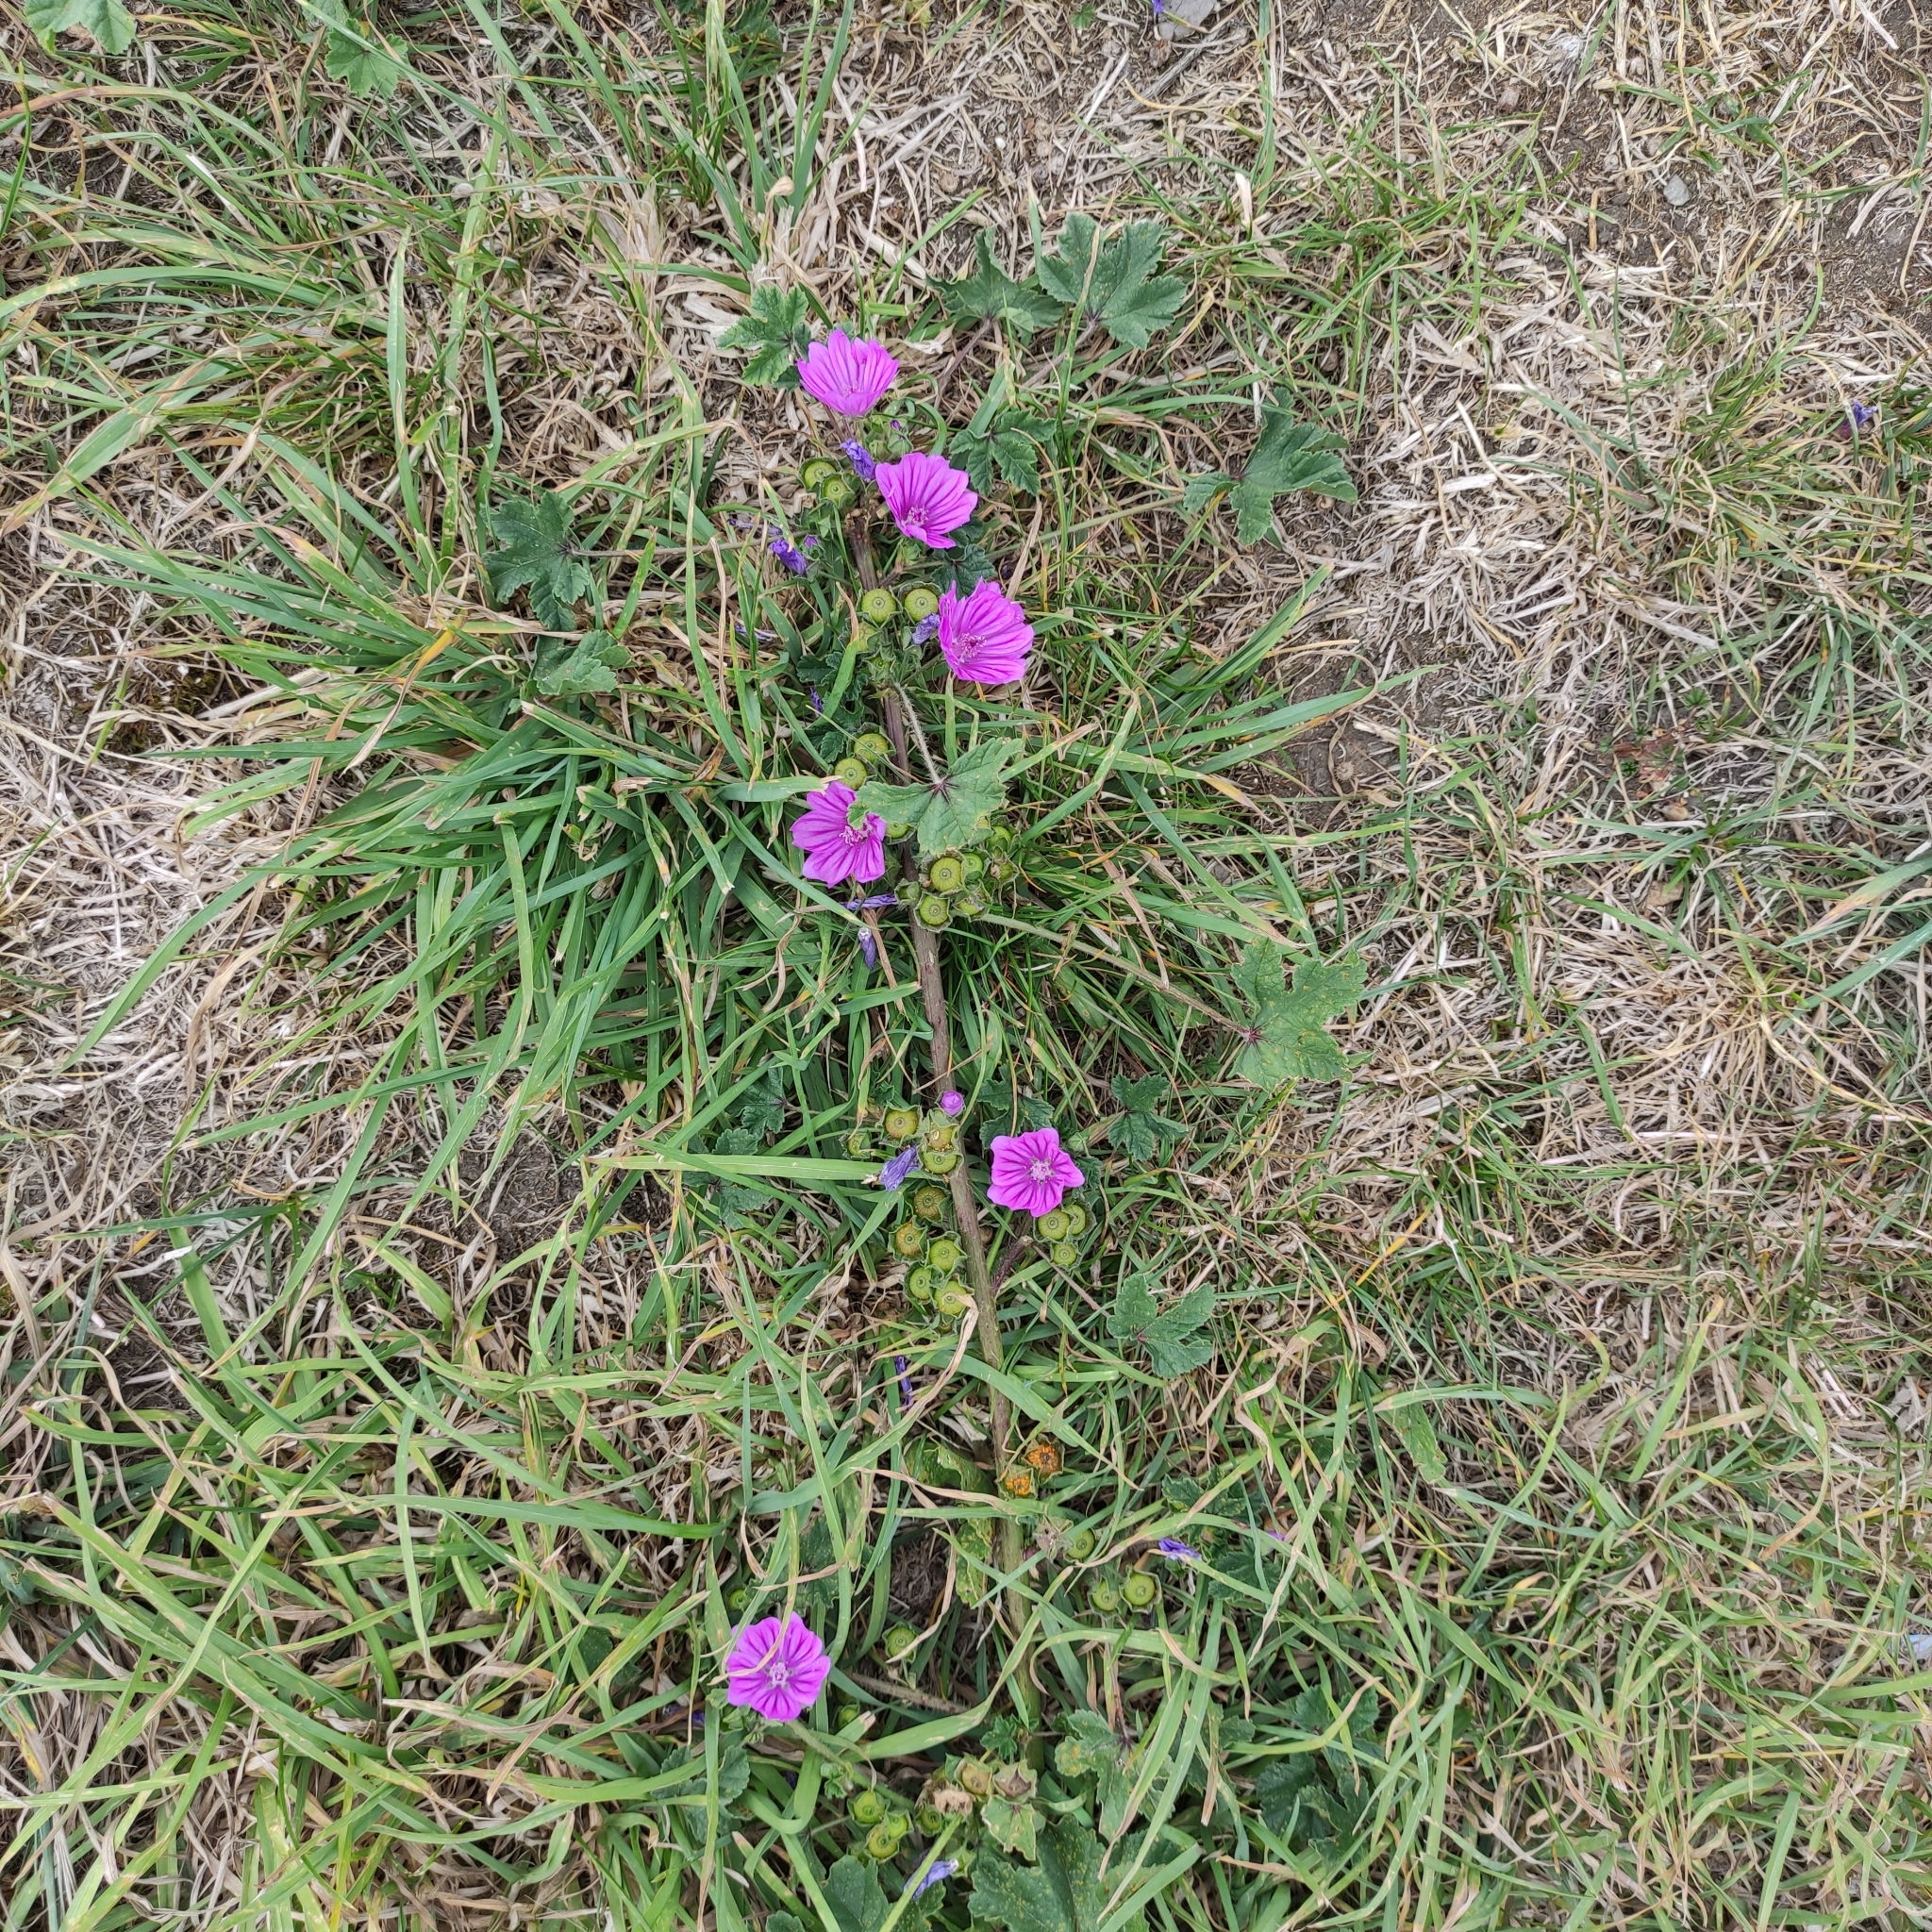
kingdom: Plantae
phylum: Tracheophyta
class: Magnoliopsida
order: Malvales
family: Malvaceae
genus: Malva
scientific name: Malva sylvestris
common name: Common mallow
